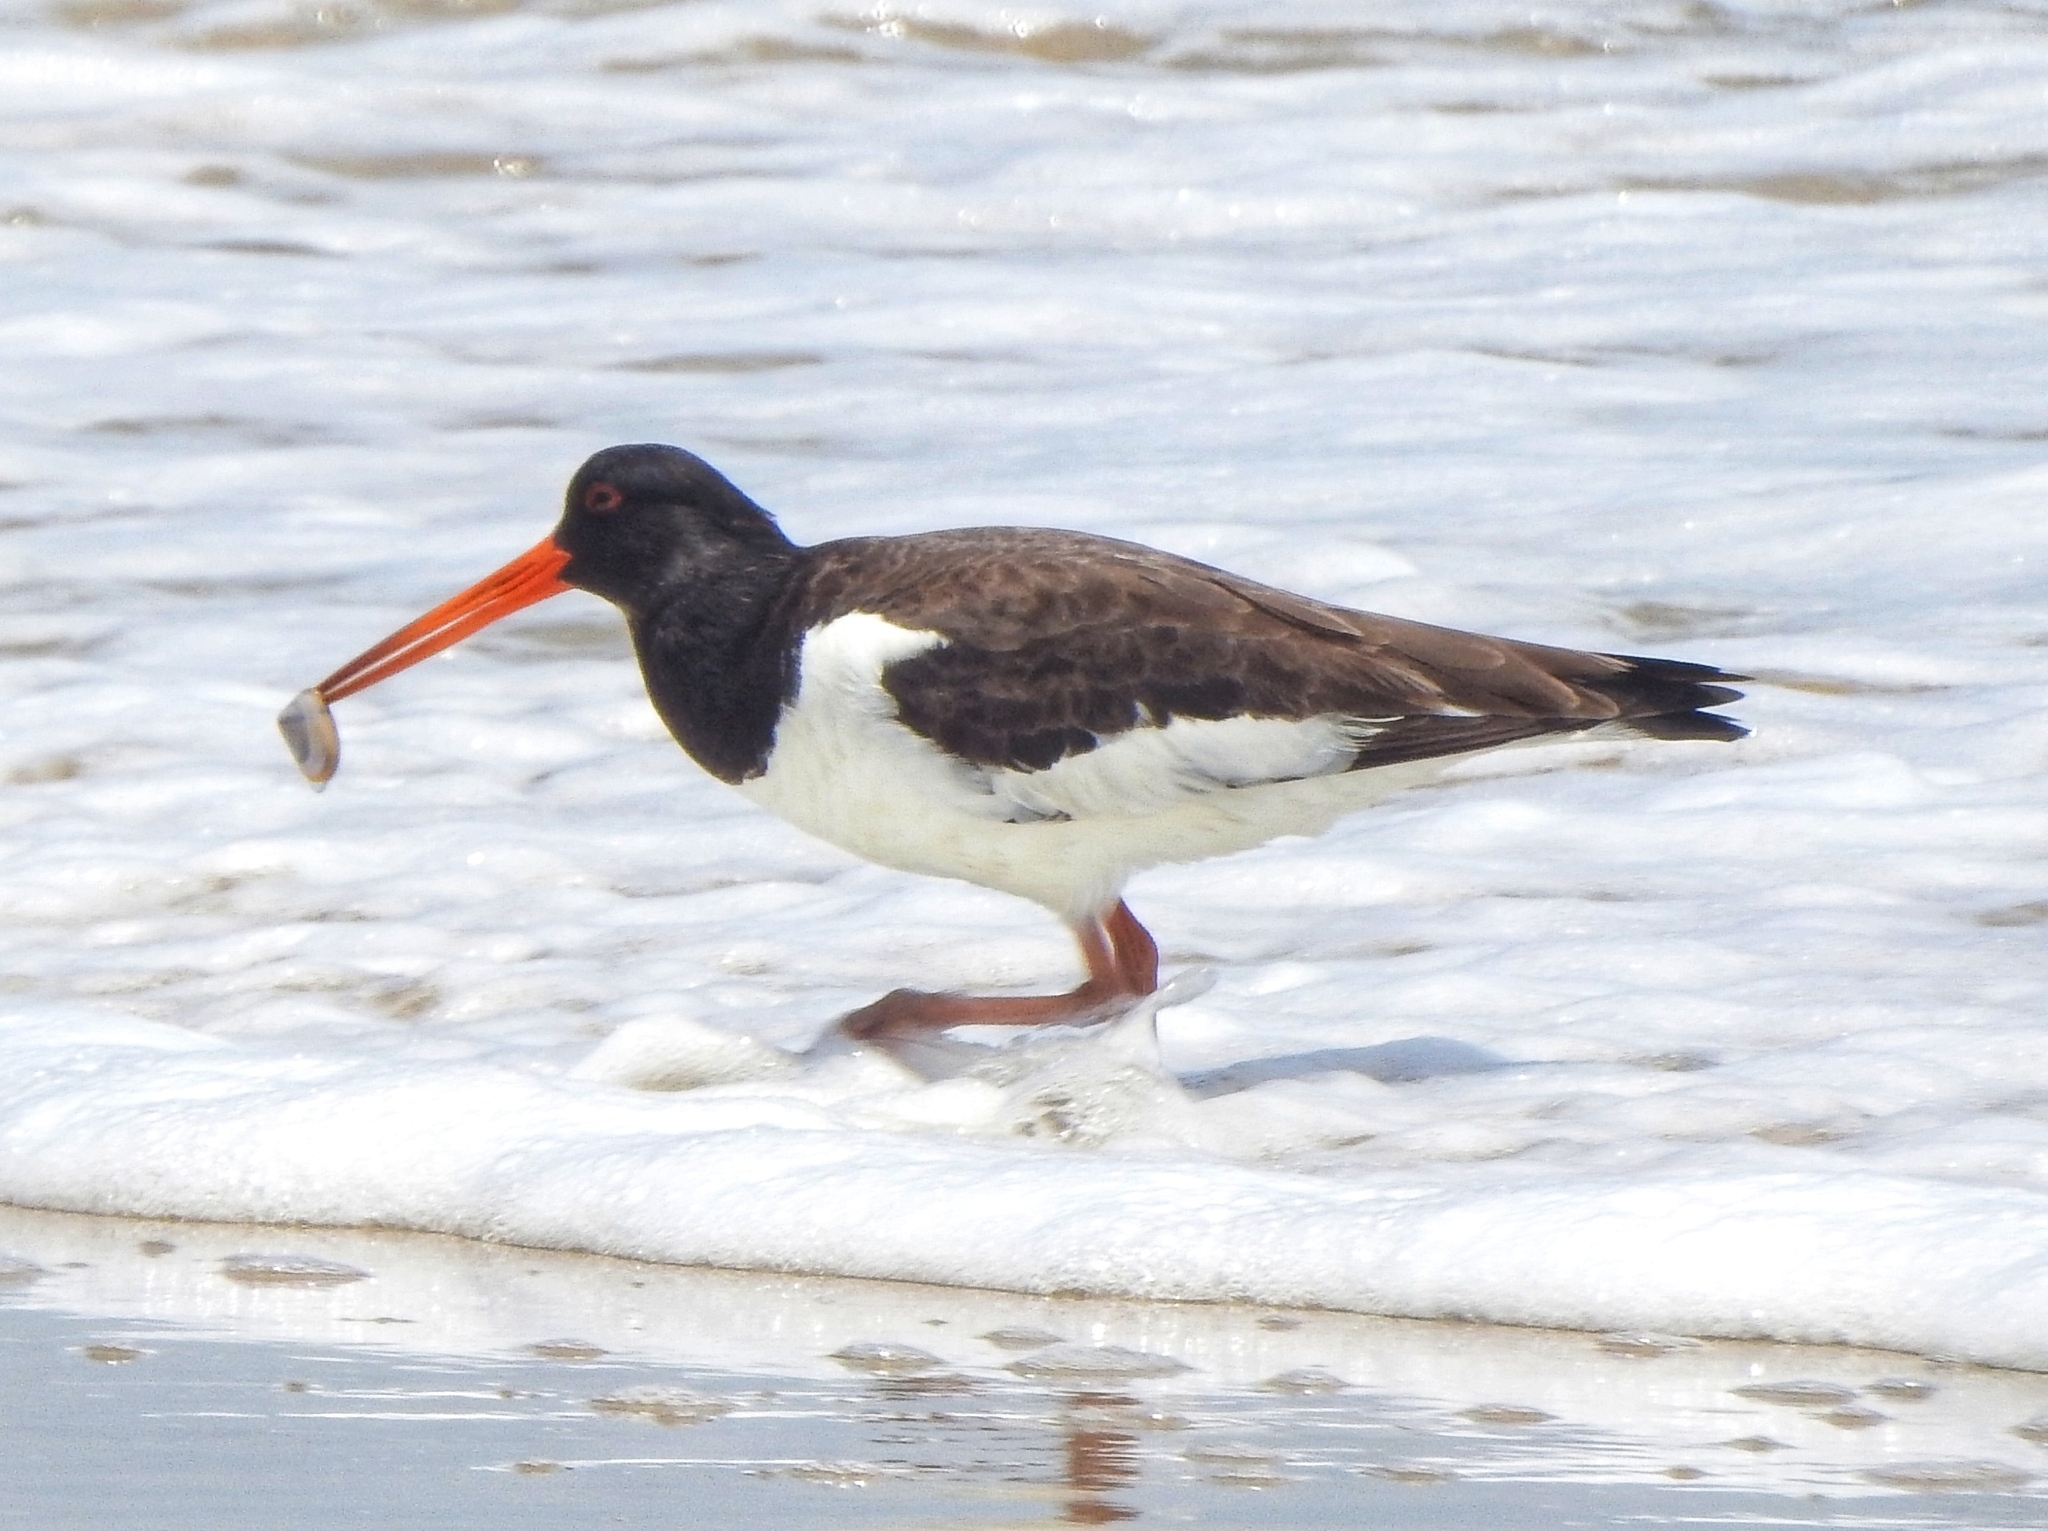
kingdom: Animalia
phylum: Chordata
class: Aves
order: Charadriiformes
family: Haematopodidae
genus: Haematopus
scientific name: Haematopus ostralegus
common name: Eurasian oystercatcher
